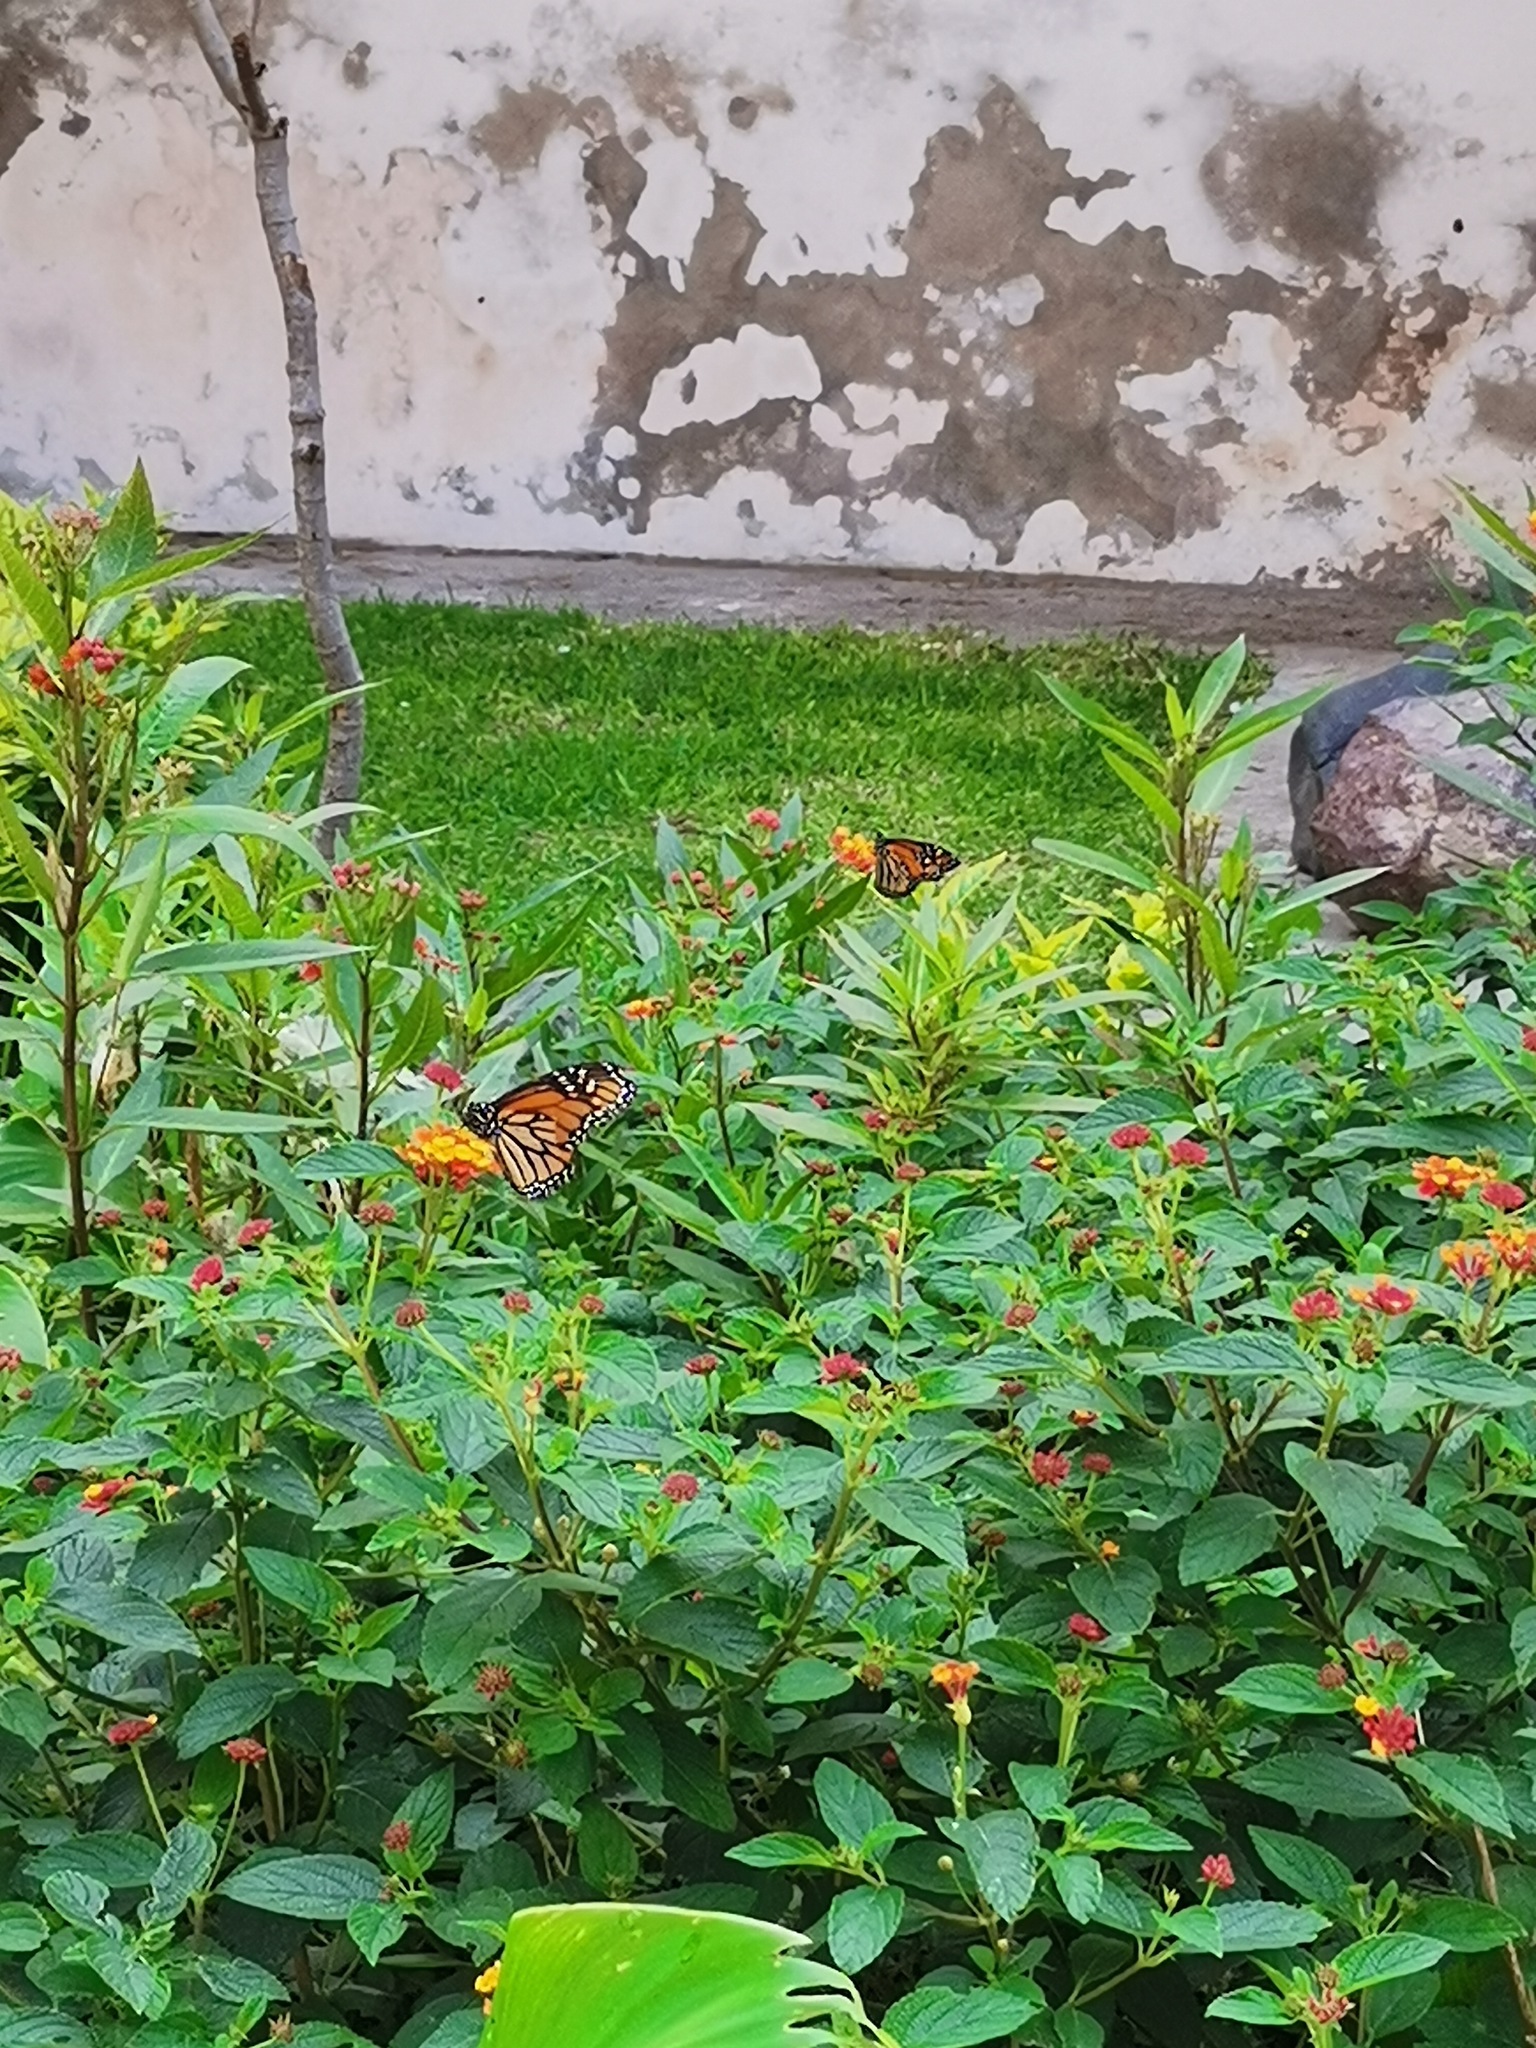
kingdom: Animalia
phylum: Arthropoda
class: Insecta
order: Lepidoptera
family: Nymphalidae
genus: Danaus
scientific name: Danaus plexippus
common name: Monarch
